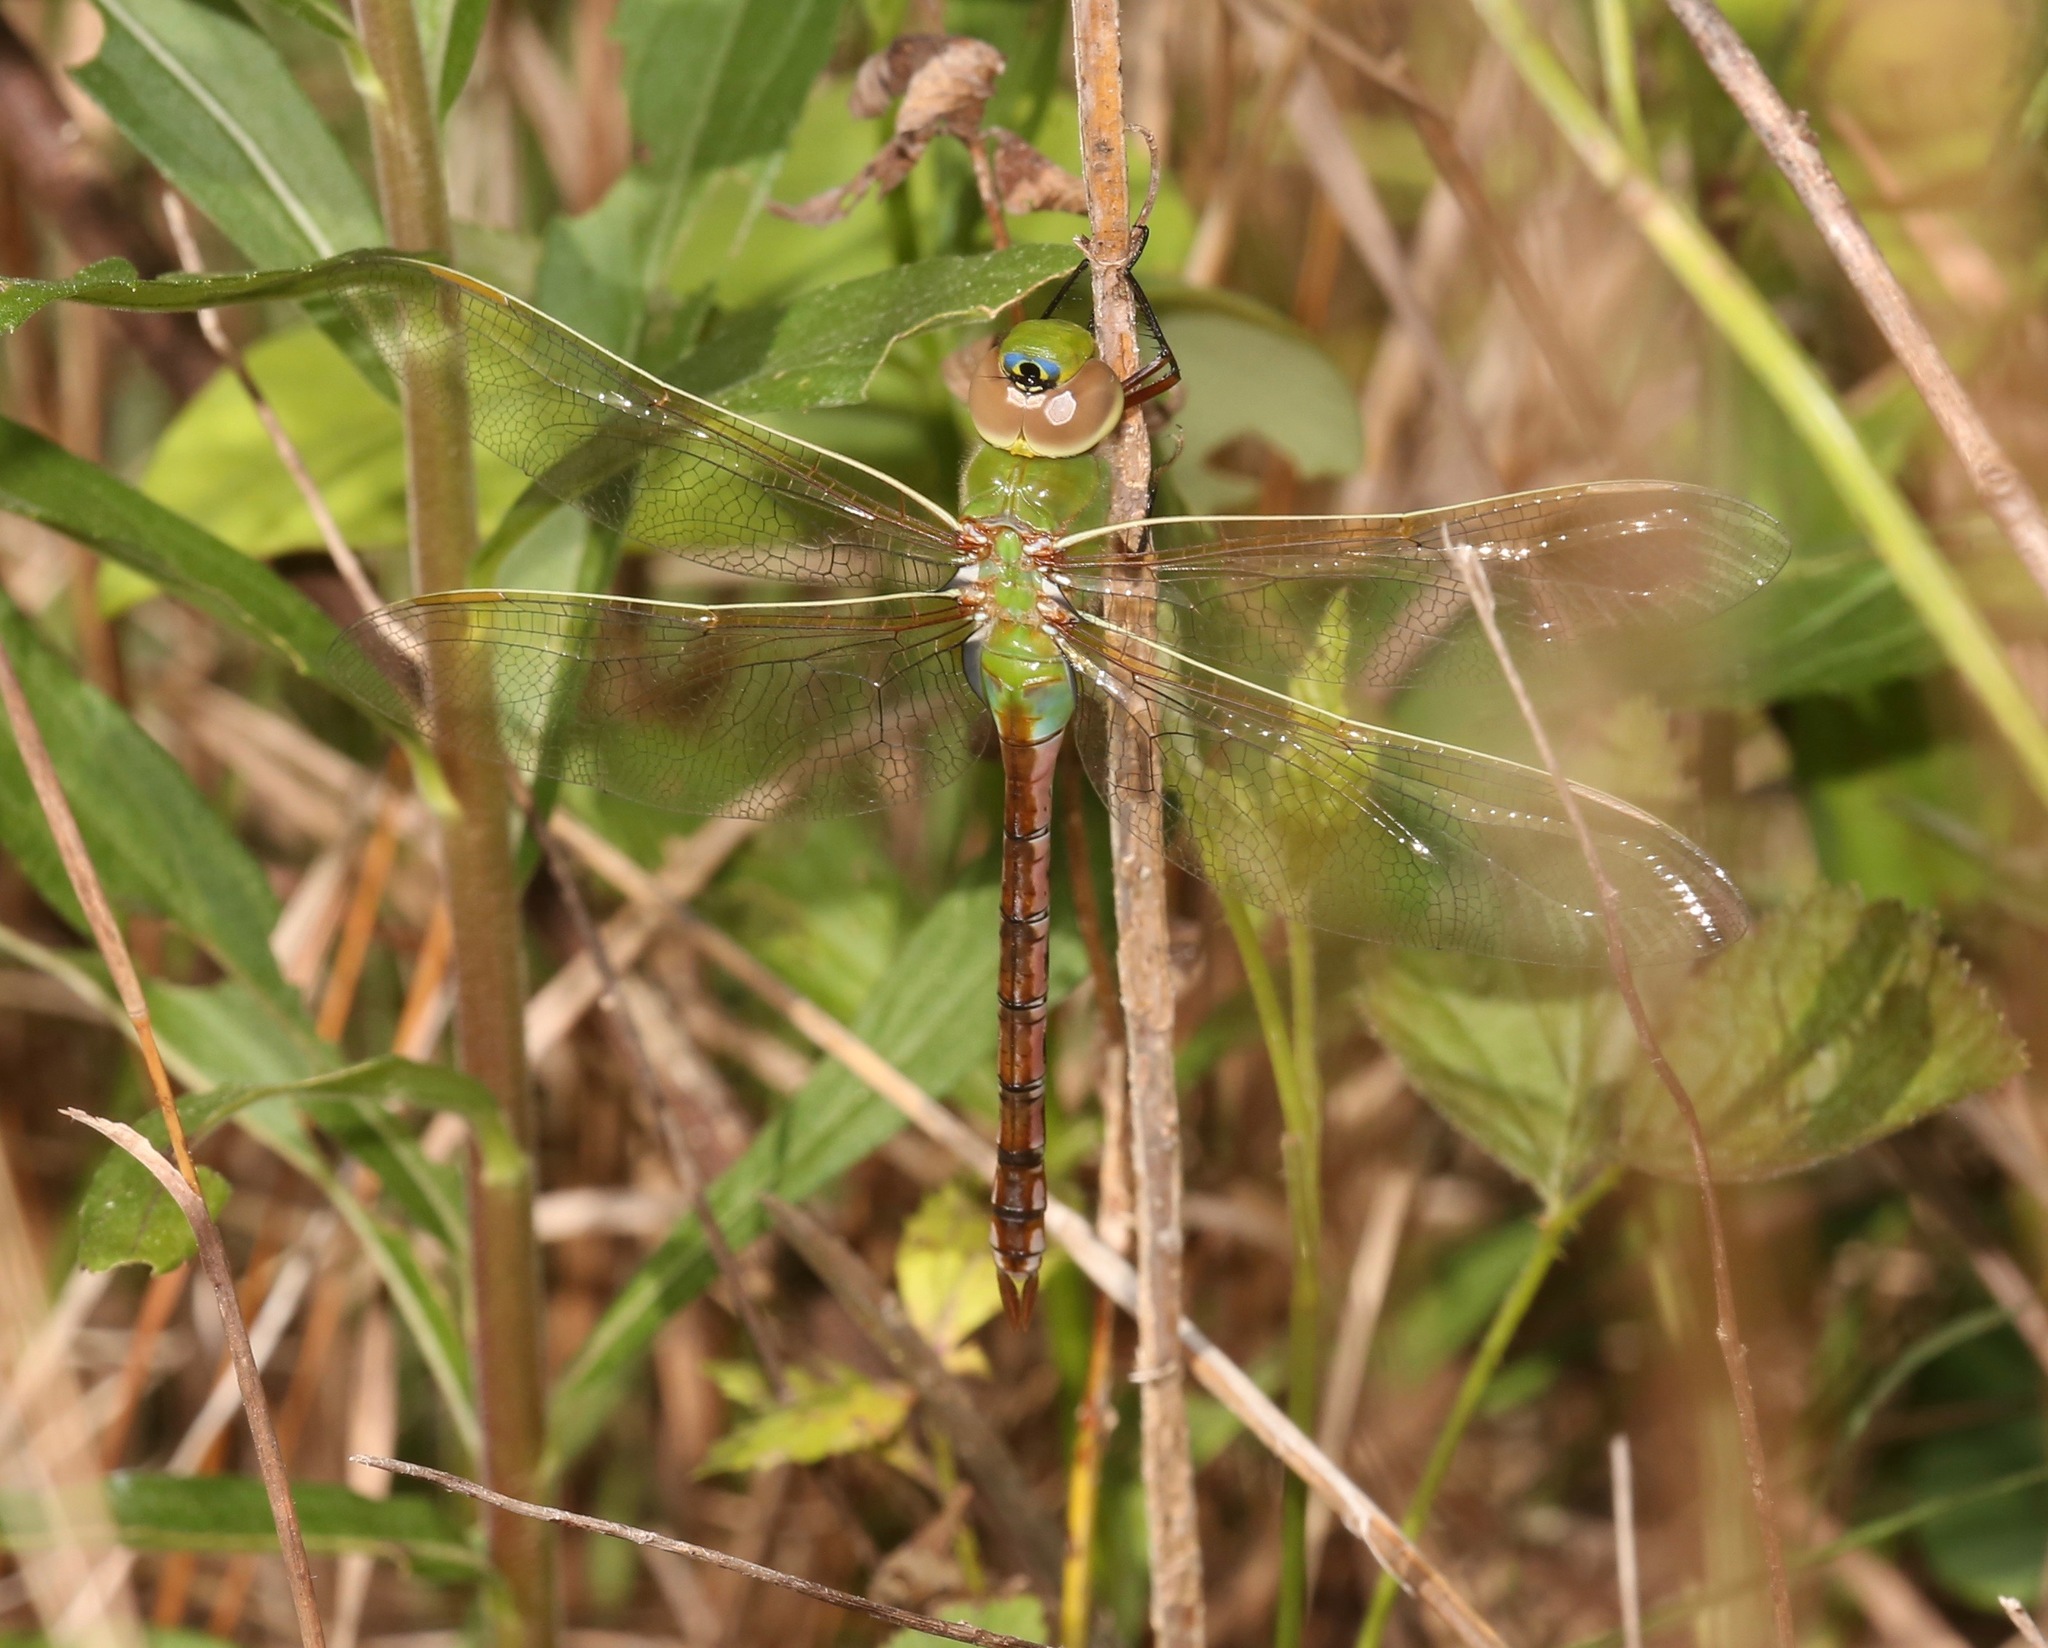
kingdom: Animalia
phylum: Arthropoda
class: Insecta
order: Odonata
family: Aeshnidae
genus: Anax
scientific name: Anax junius
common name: Common green darner
